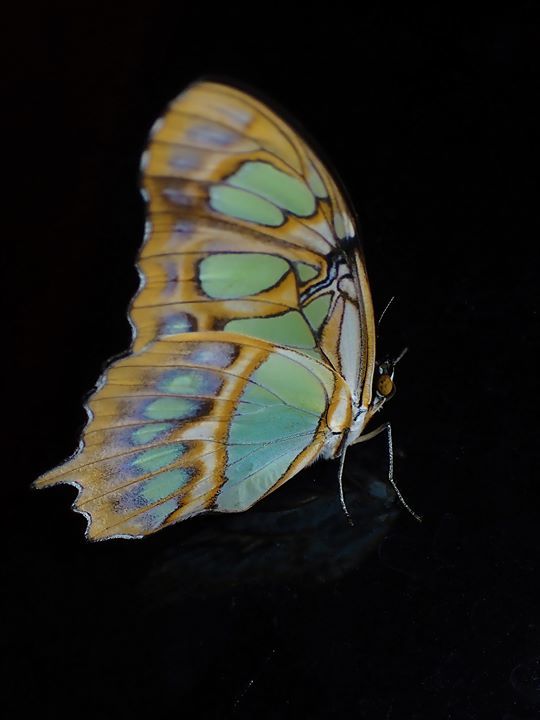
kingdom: Animalia
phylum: Arthropoda
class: Insecta
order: Lepidoptera
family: Nymphalidae
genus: Siproeta
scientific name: Siproeta stelenes
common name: Malachite
